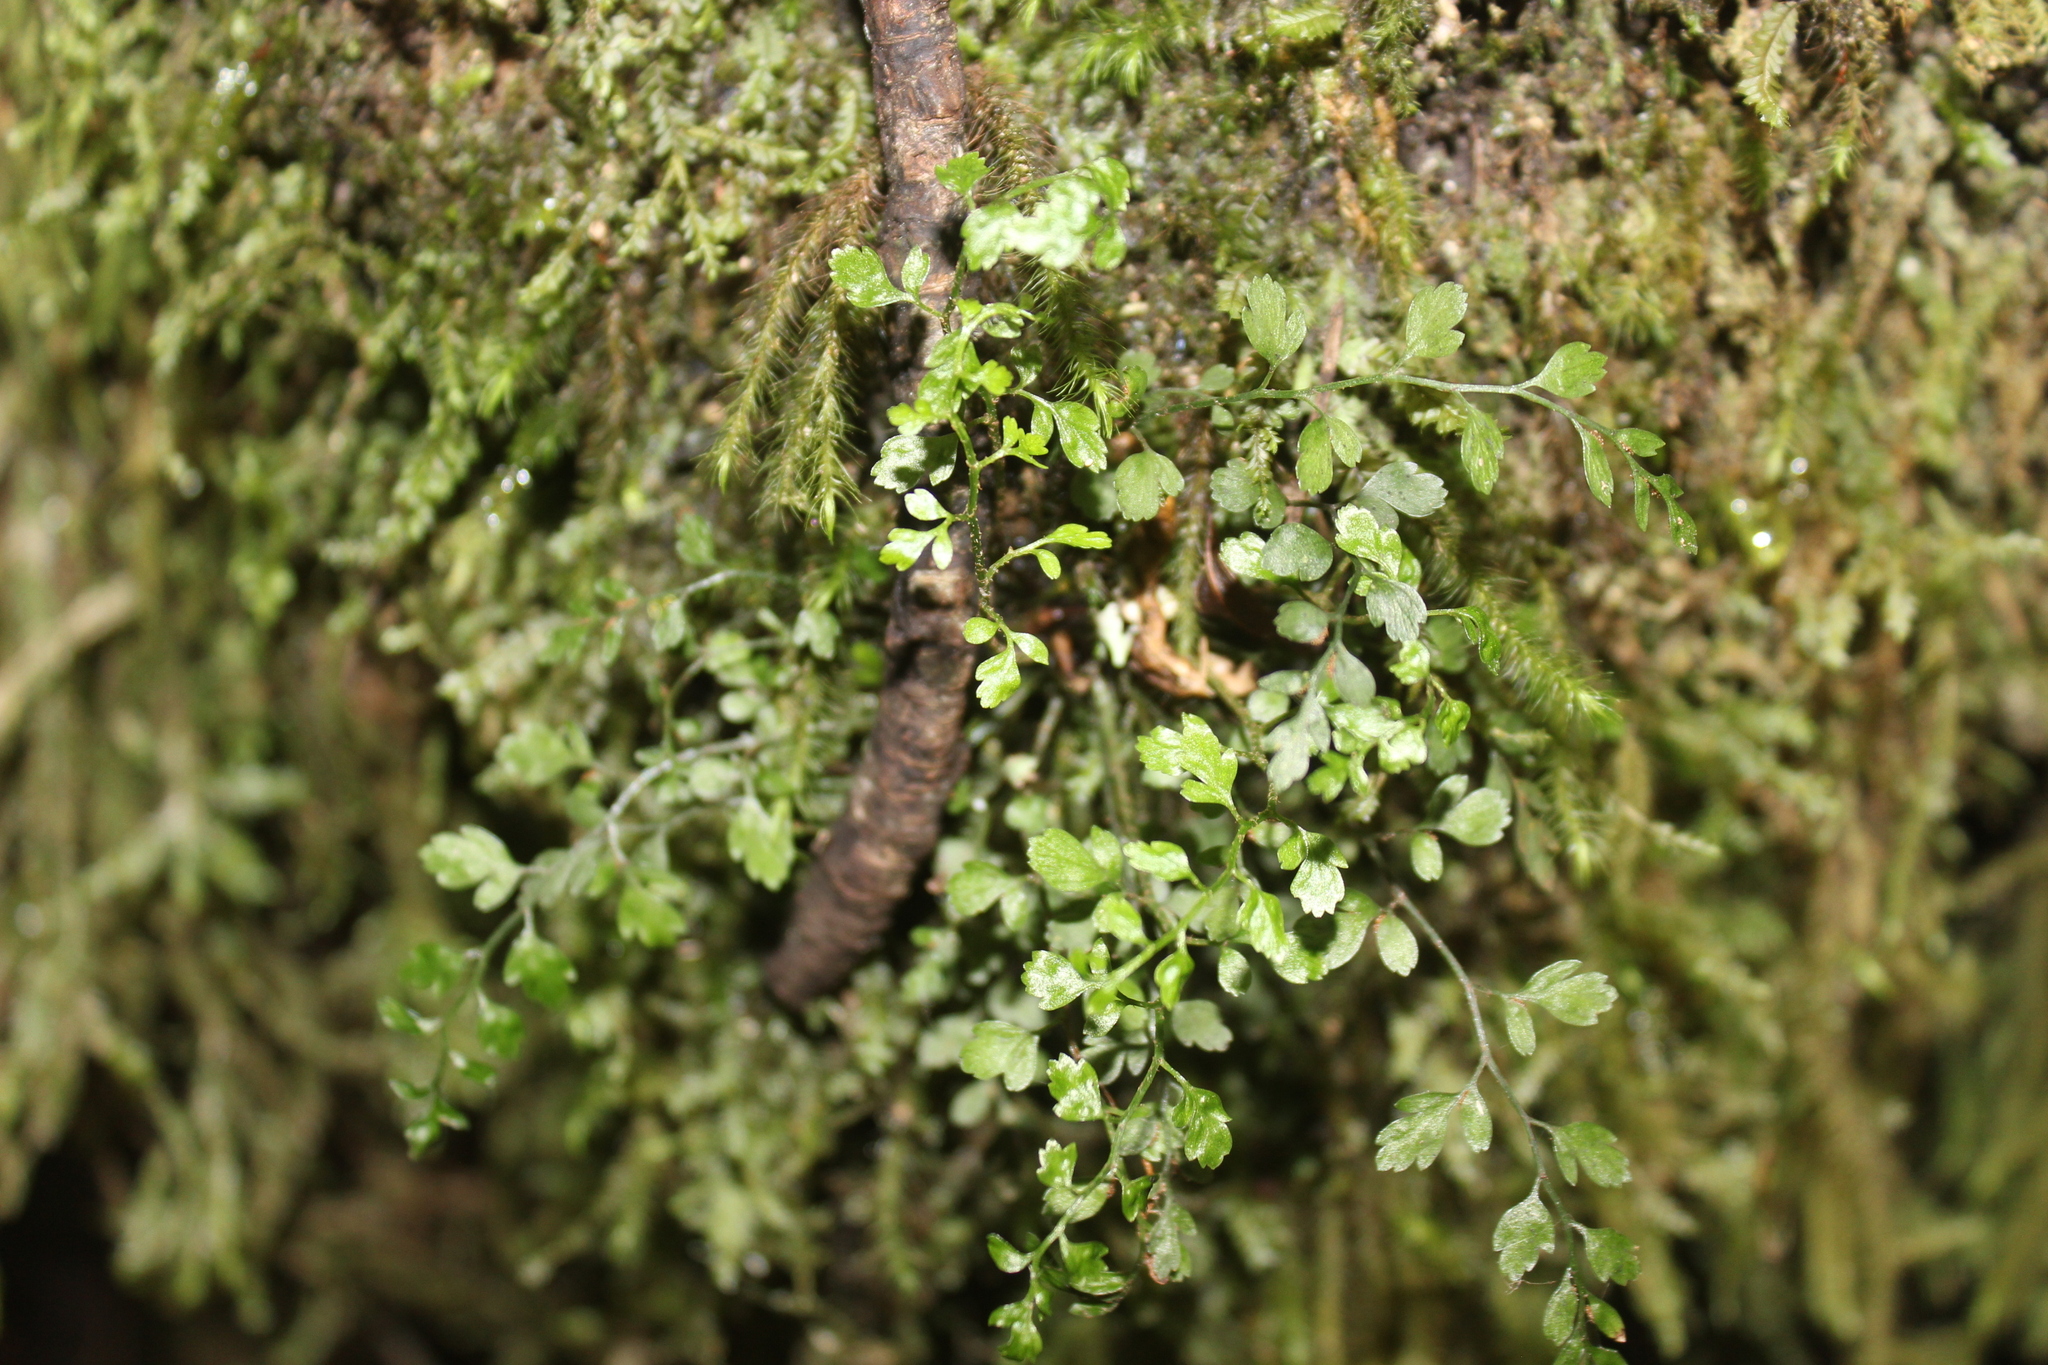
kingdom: Plantae
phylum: Tracheophyta
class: Polypodiopsida
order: Polypodiales
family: Aspleniaceae
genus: Asplenium
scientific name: Asplenium hookerianum
